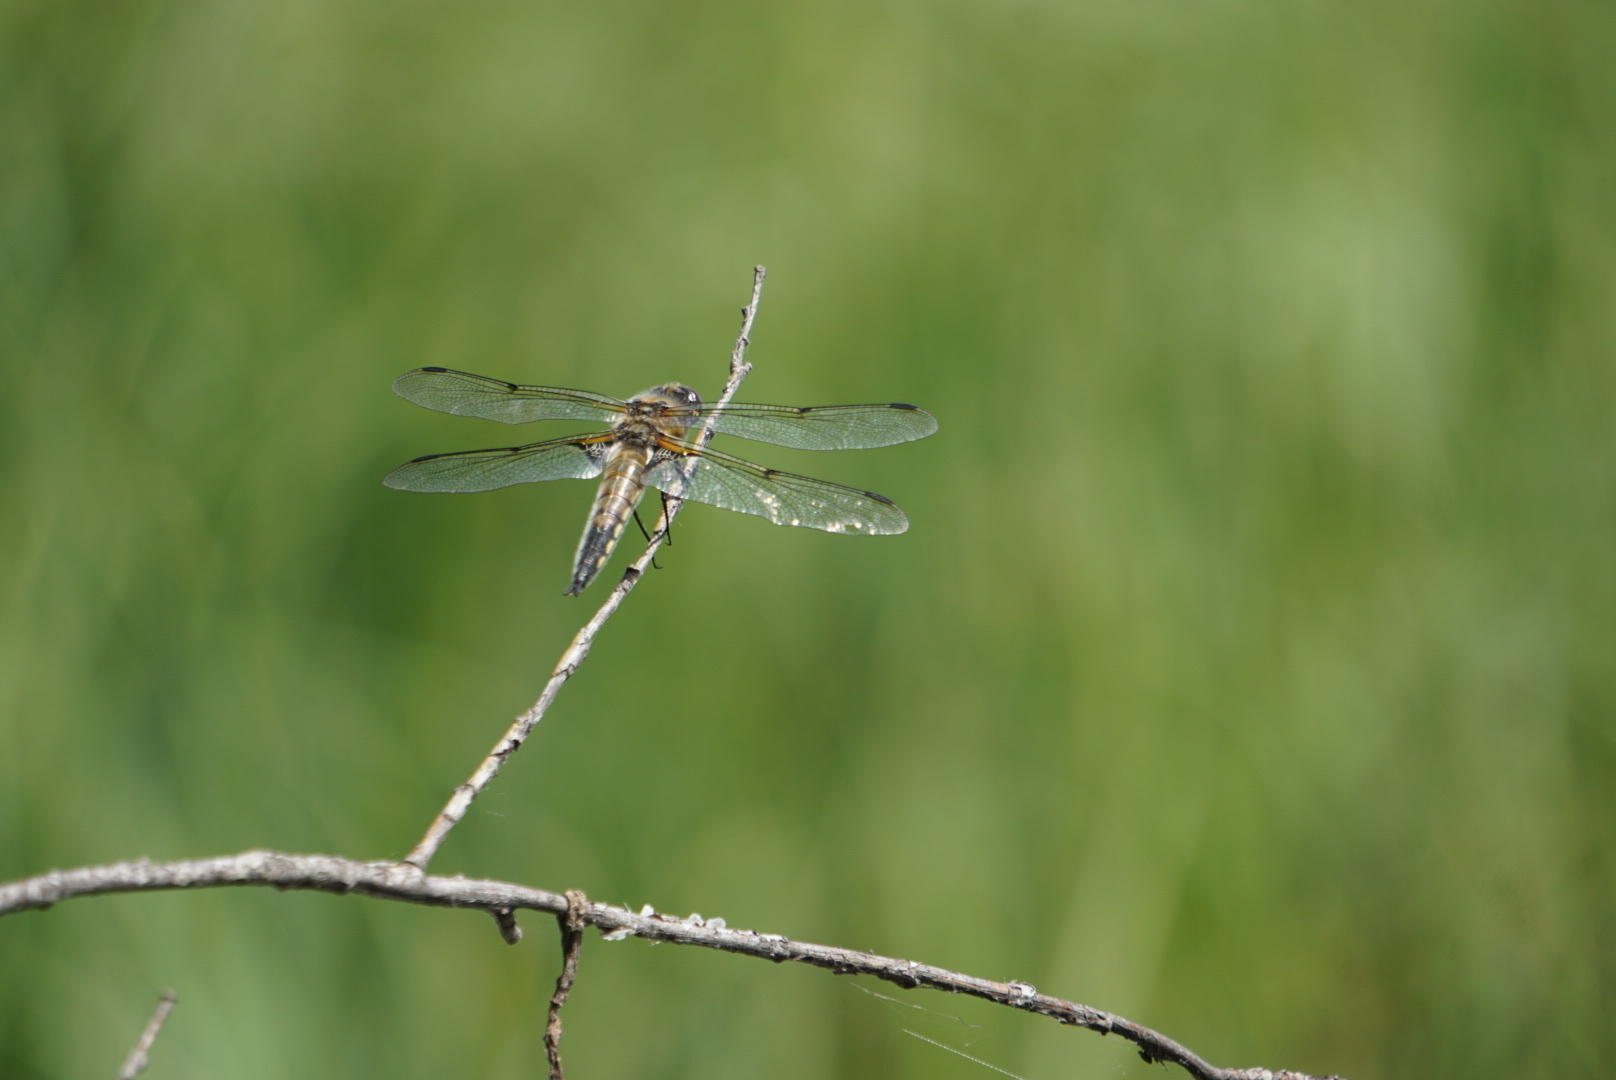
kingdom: Animalia
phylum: Arthropoda
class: Insecta
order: Odonata
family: Libellulidae
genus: Libellula
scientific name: Libellula quadrimaculata
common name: Four-spotted chaser
